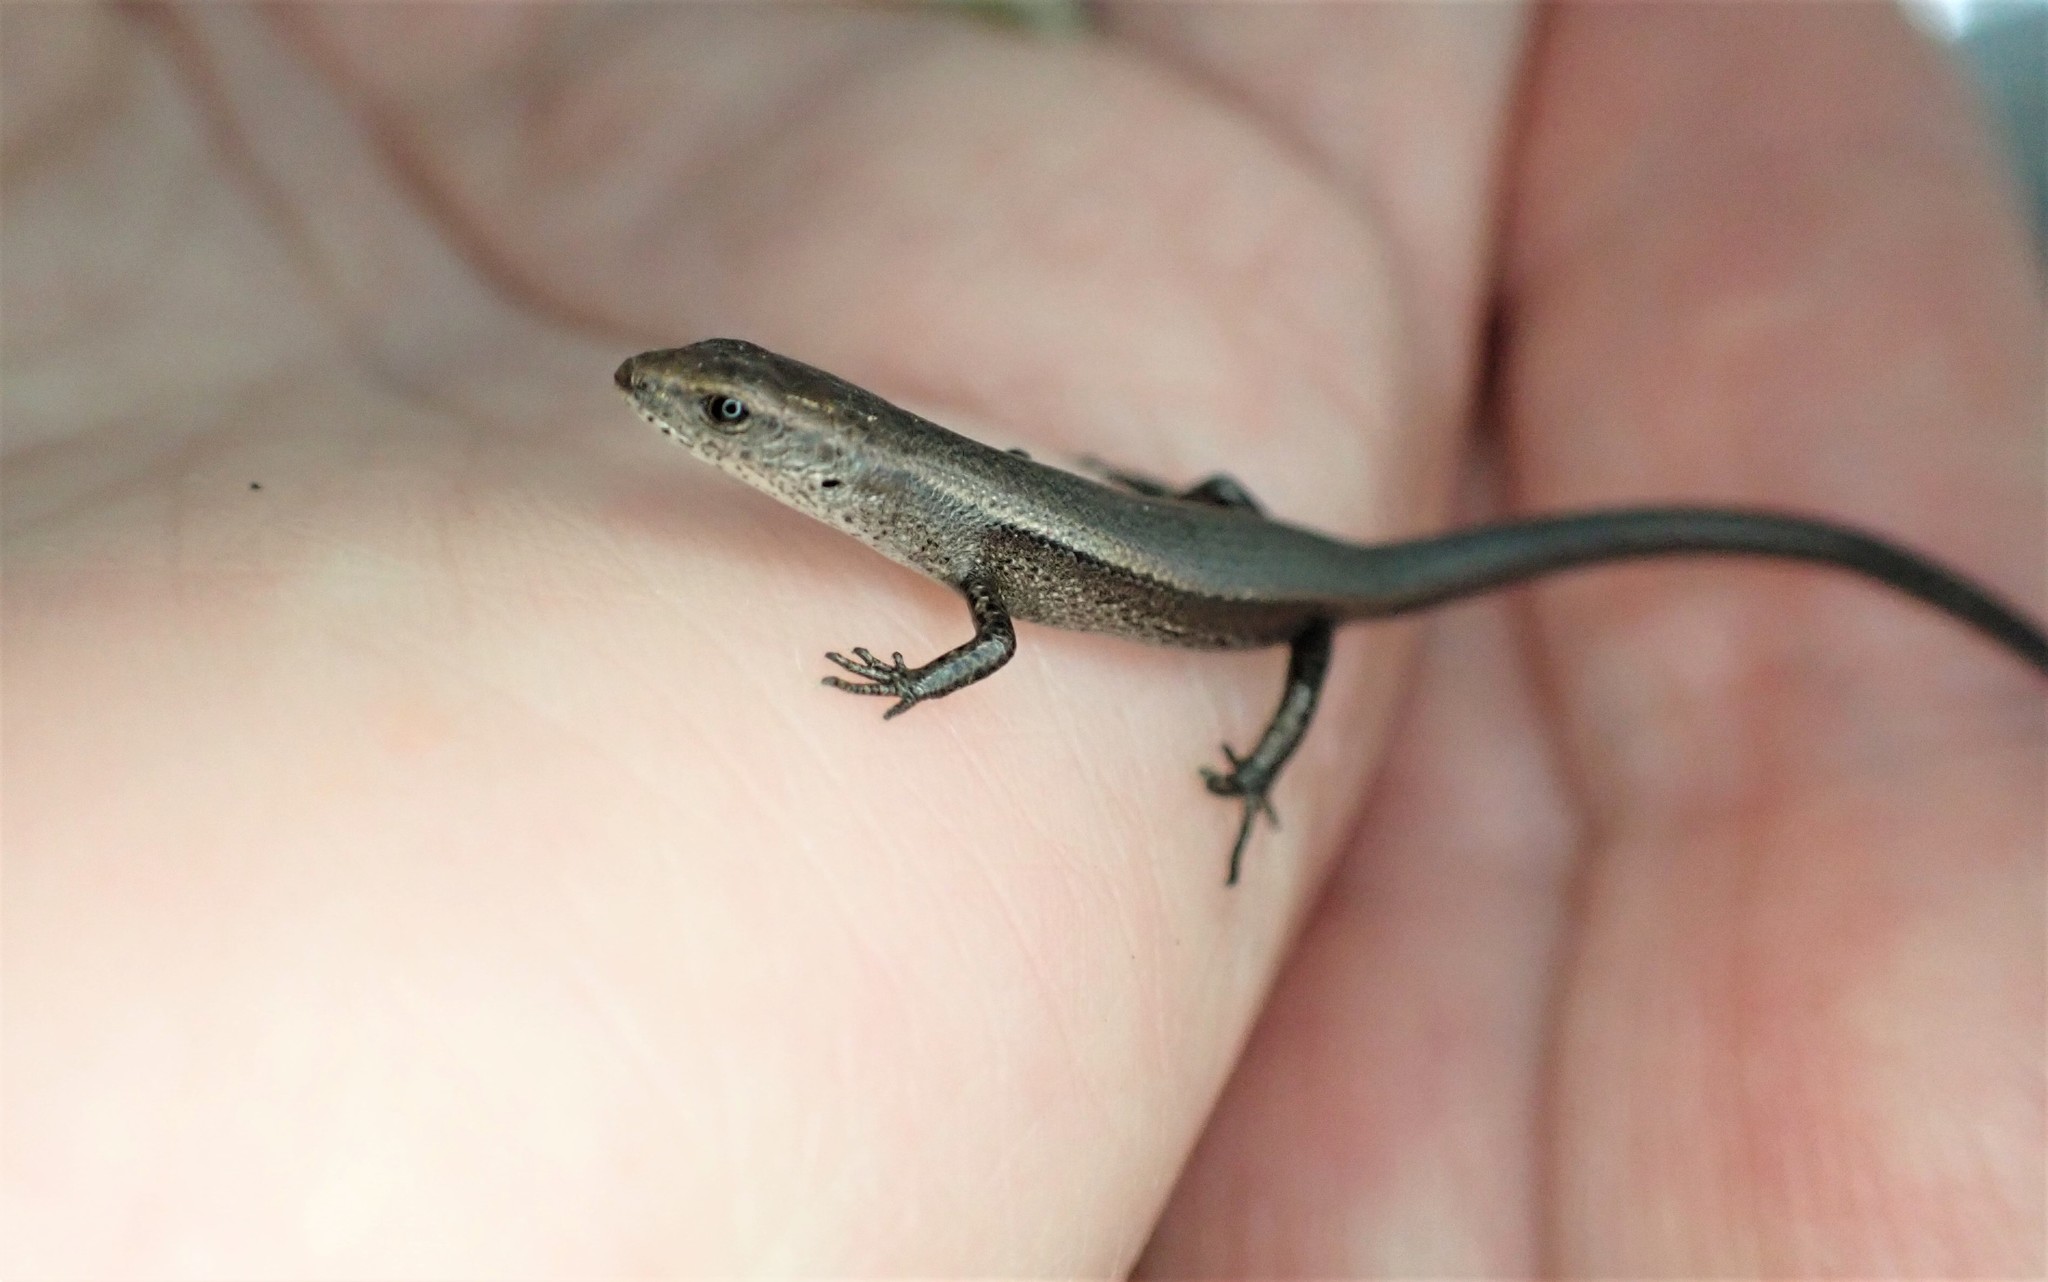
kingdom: Animalia
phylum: Chordata
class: Squamata
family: Scincidae
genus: Lampropholis
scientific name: Lampropholis delicata
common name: Plague skink
